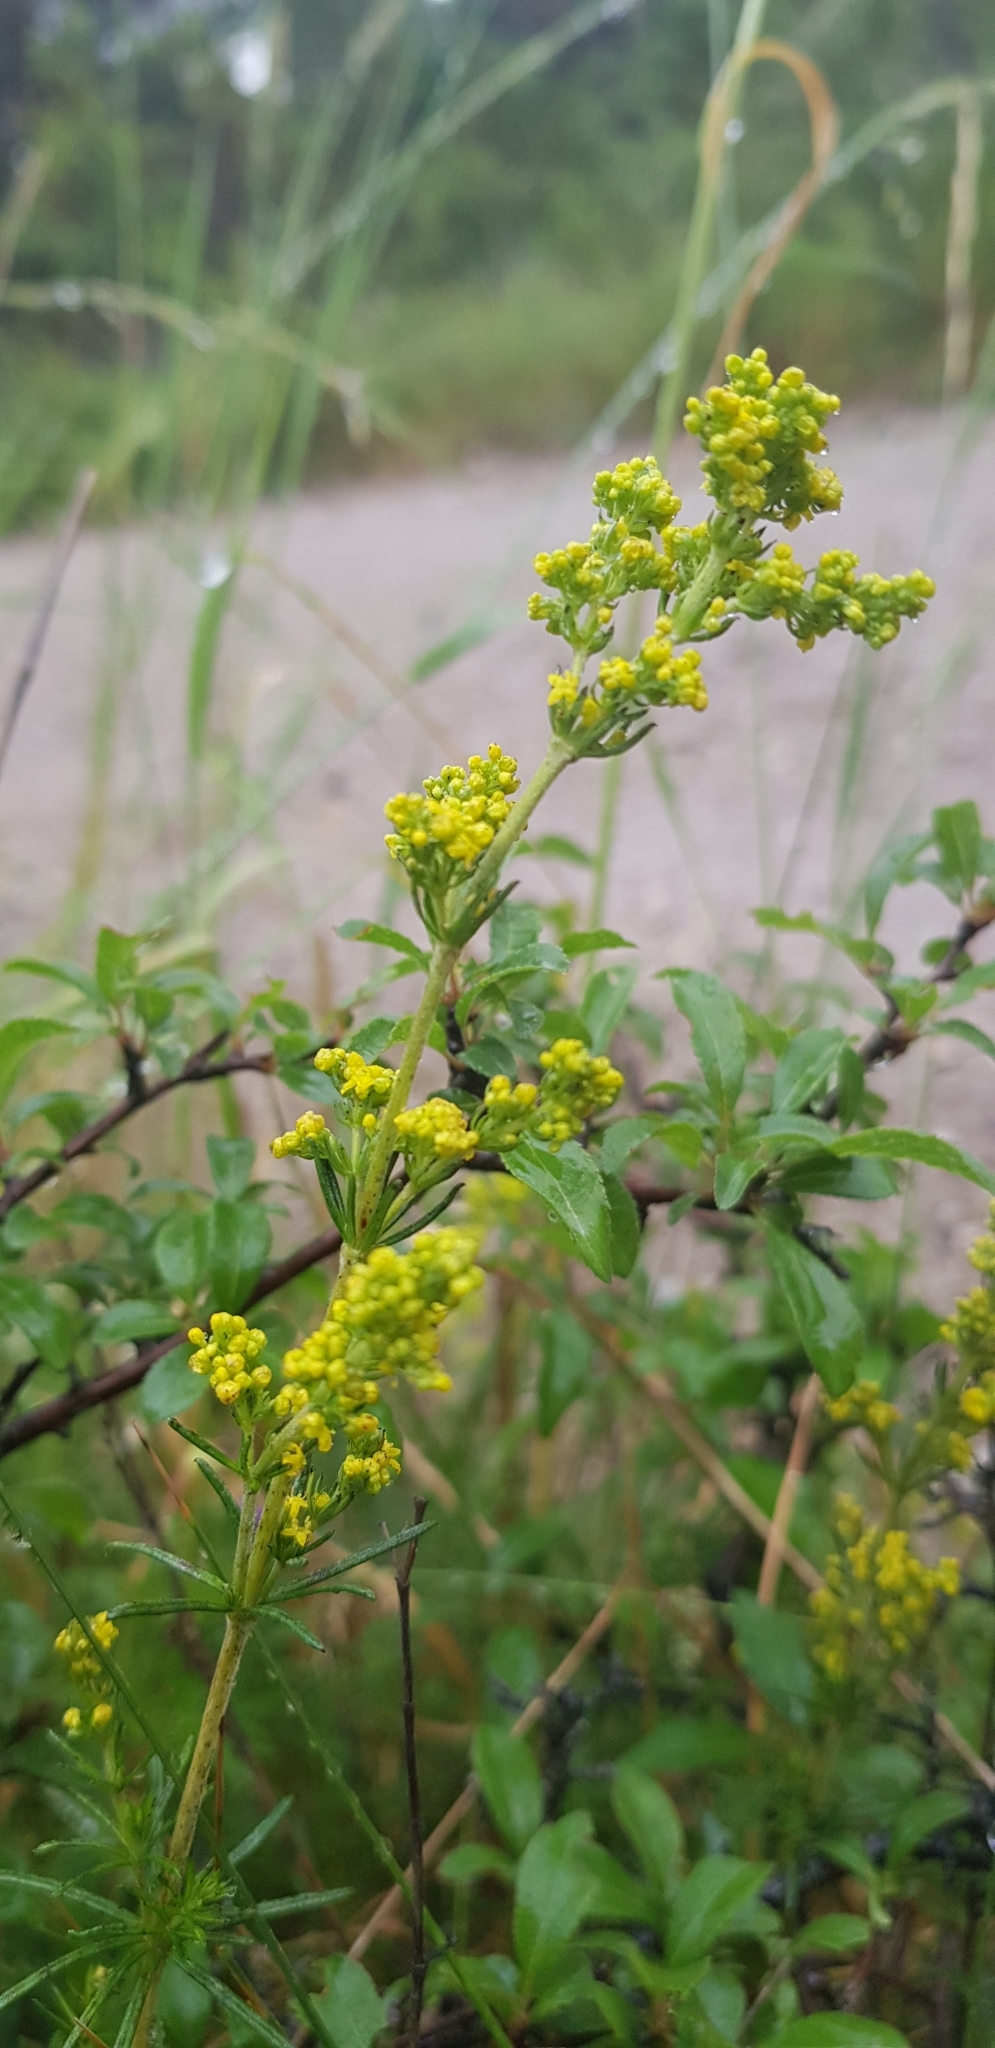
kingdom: Plantae
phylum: Tracheophyta
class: Magnoliopsida
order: Gentianales
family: Rubiaceae
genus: Galium
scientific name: Galium verum
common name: Lady's bedstraw
